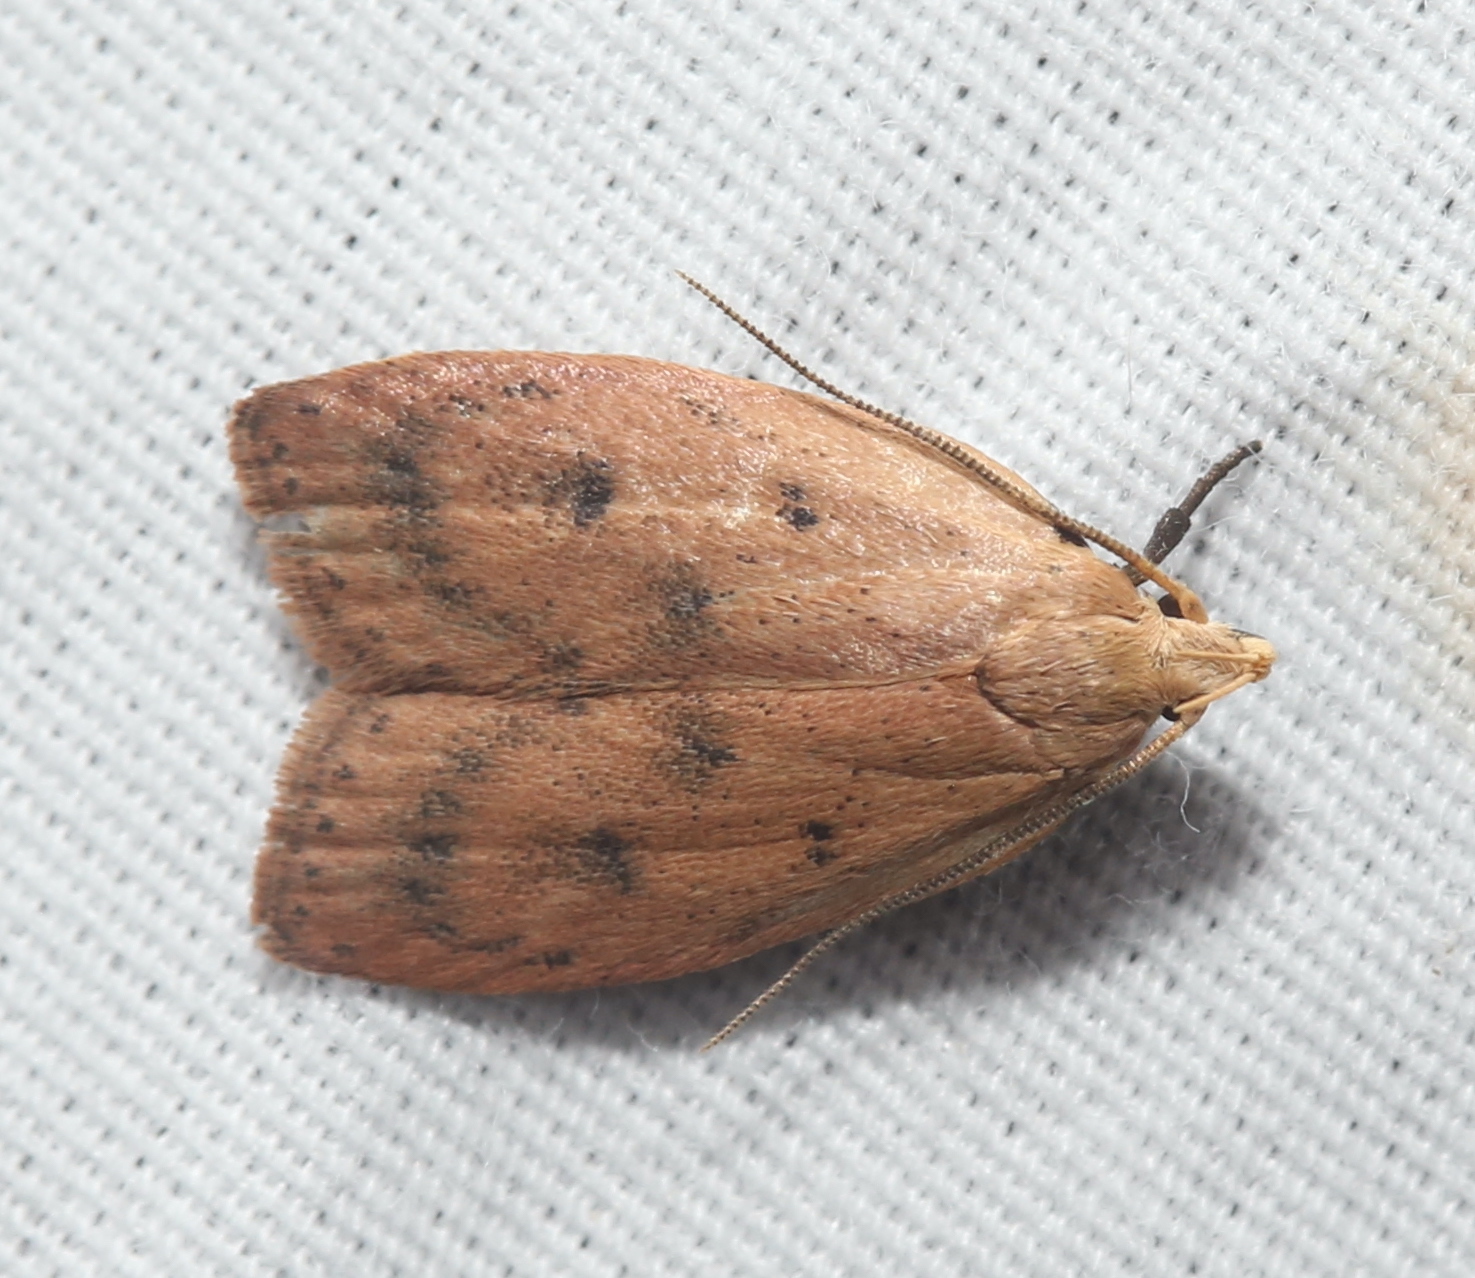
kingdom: Animalia
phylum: Arthropoda
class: Insecta
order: Lepidoptera
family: Peleopodidae
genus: Machimia
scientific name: Machimia tentoriferella
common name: Gold-striped leaftier moth
